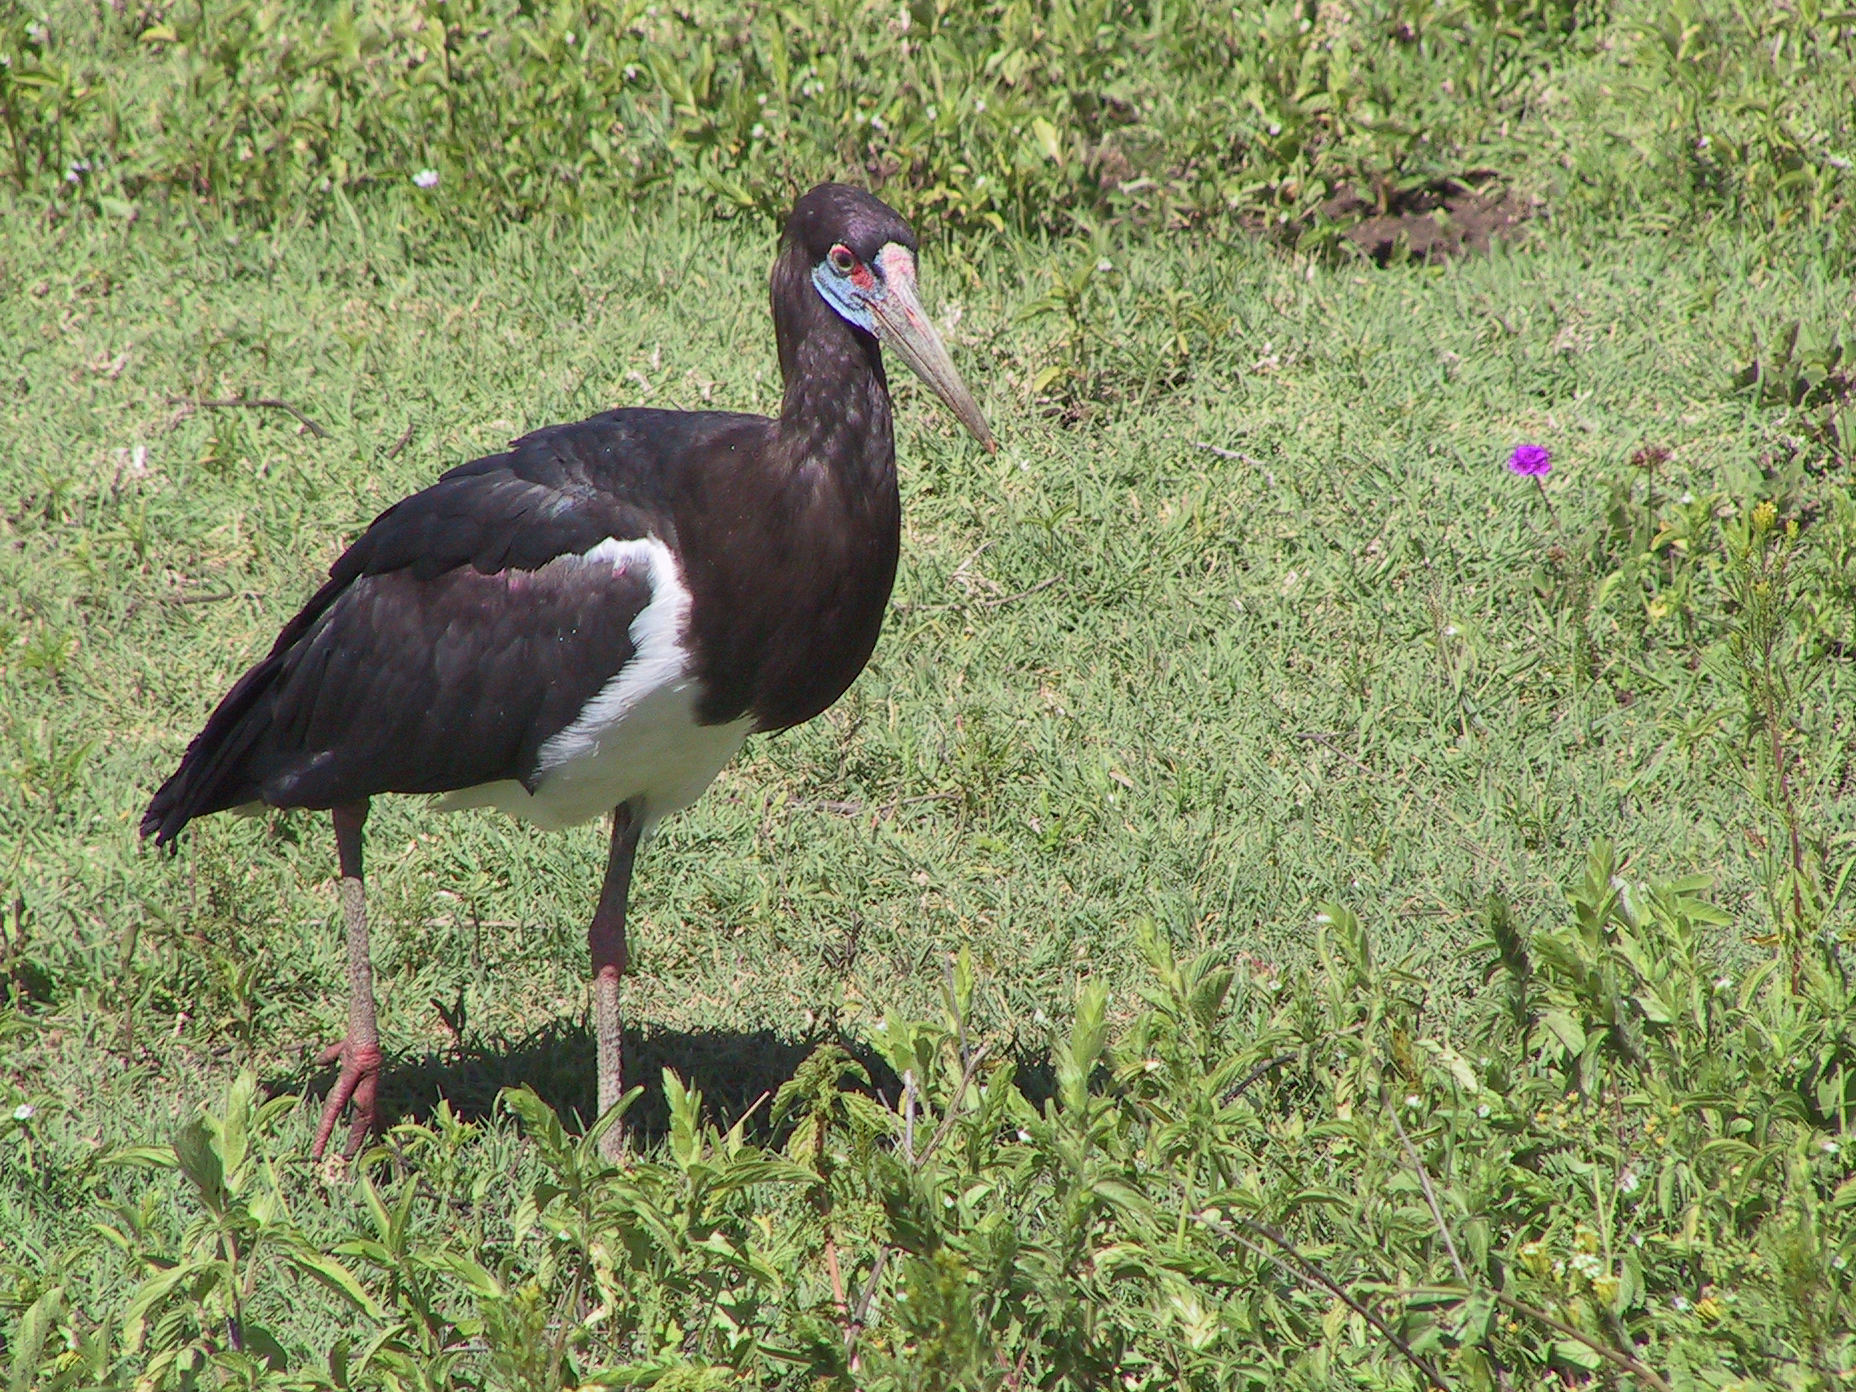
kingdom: Animalia
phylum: Chordata
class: Aves
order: Ciconiiformes
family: Ciconiidae
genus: Ciconia
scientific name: Ciconia abdimii
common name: Abdim's stork
